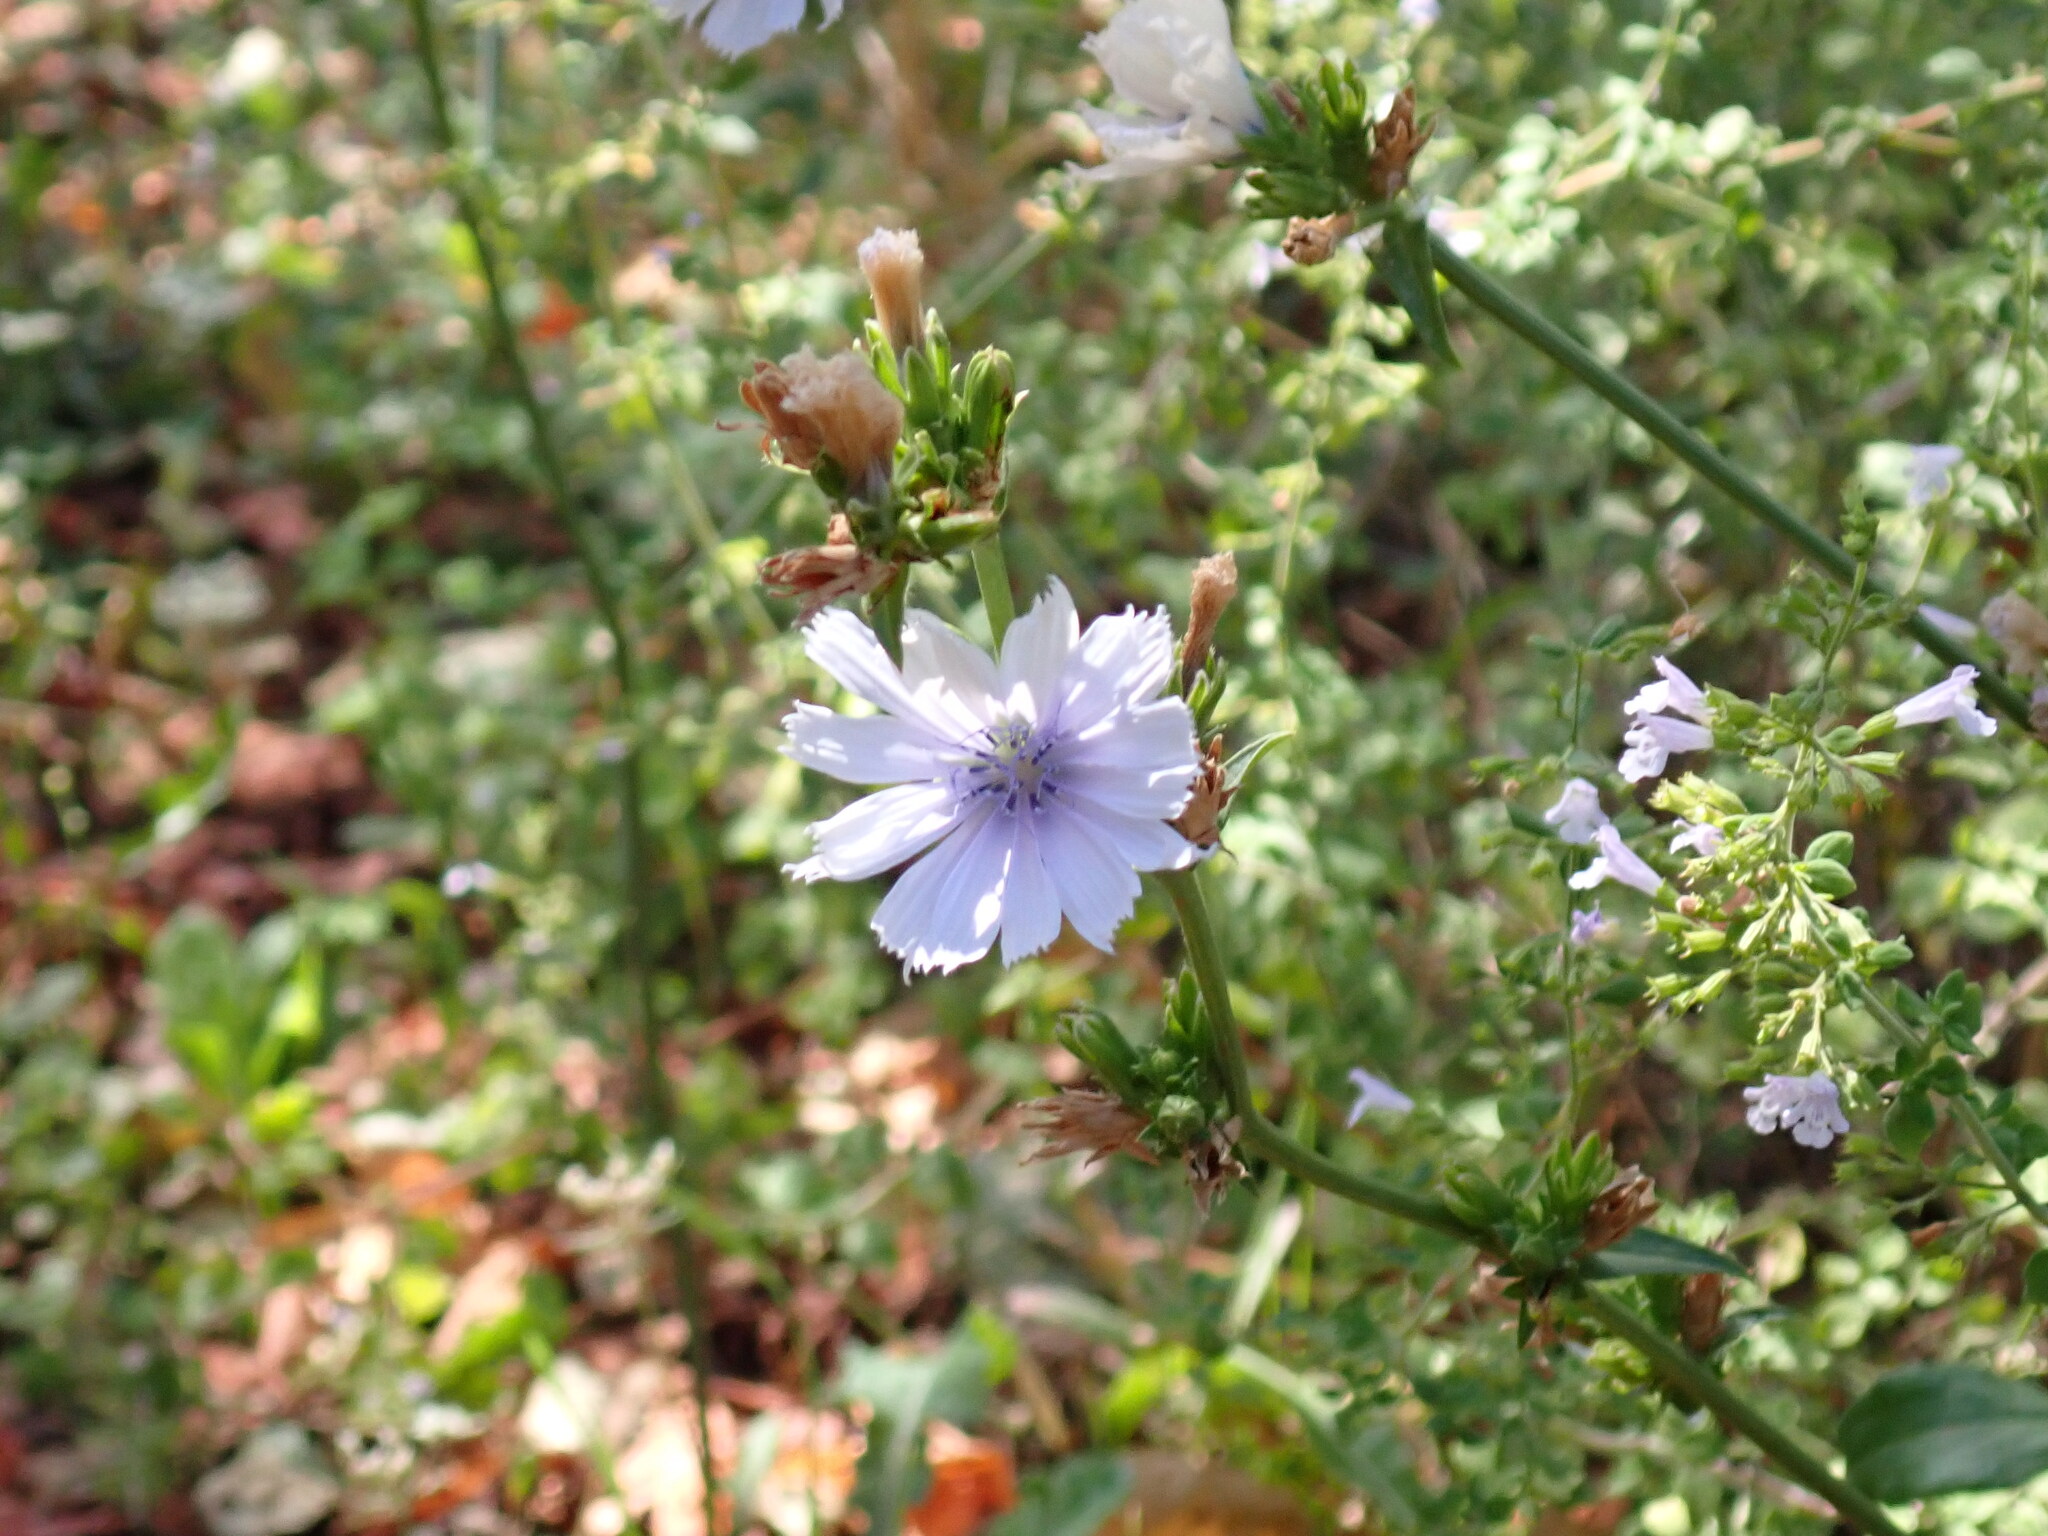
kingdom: Plantae
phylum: Tracheophyta
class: Magnoliopsida
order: Asterales
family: Asteraceae
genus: Cichorium
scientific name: Cichorium intybus
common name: Chicory
